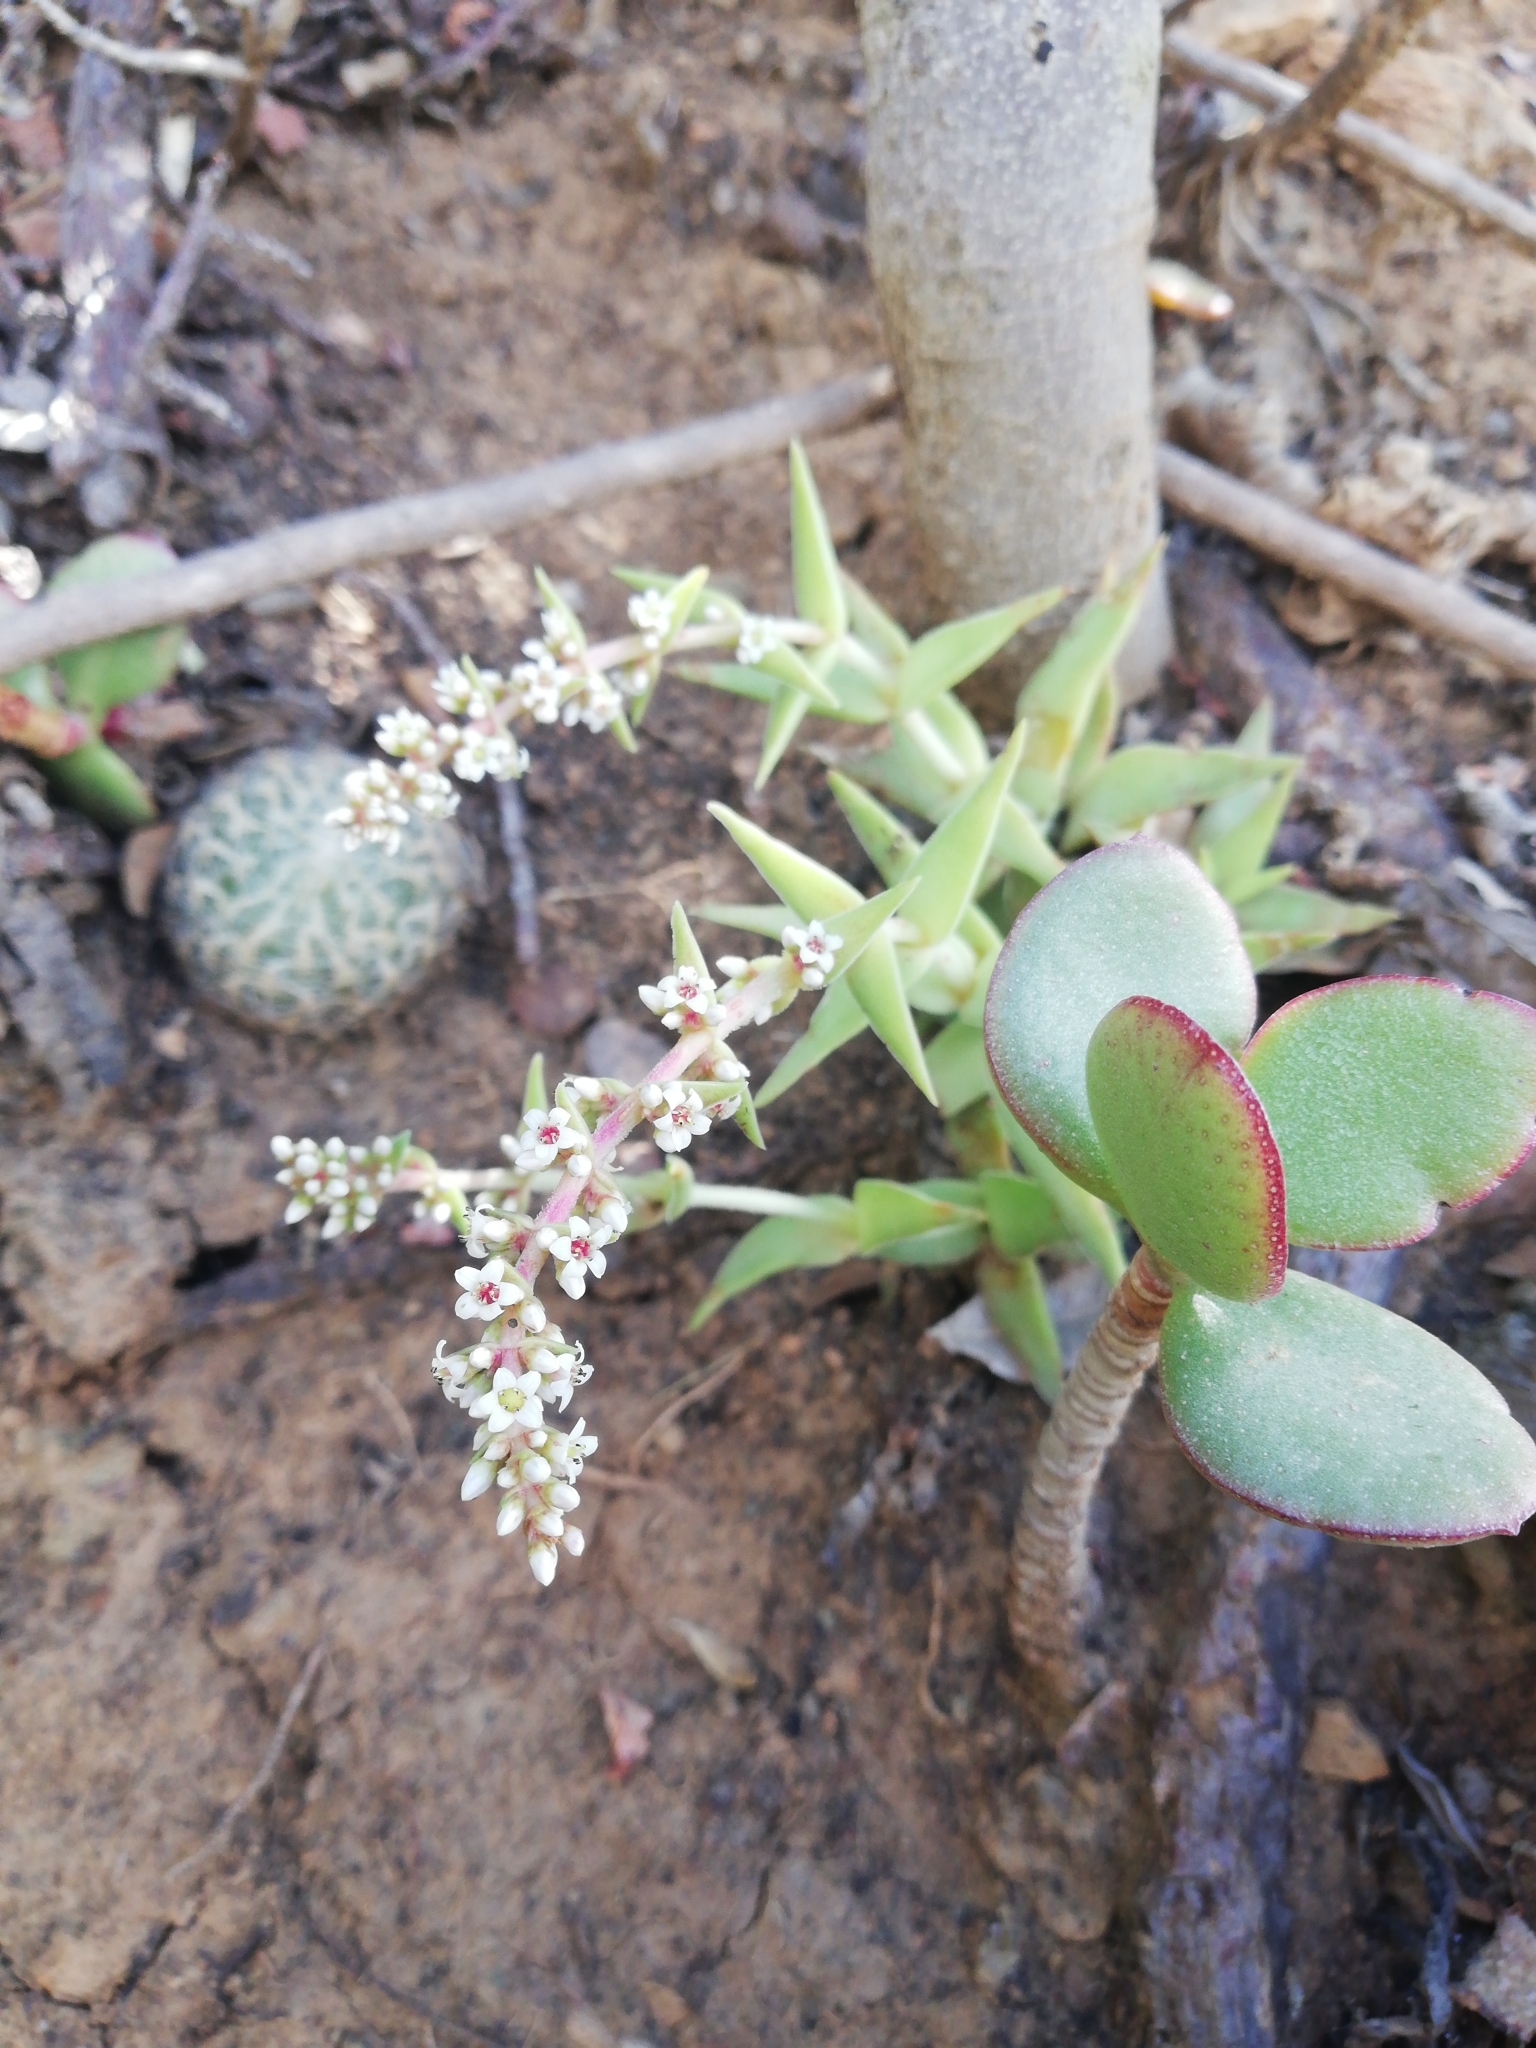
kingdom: Plantae
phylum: Tracheophyta
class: Magnoliopsida
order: Saxifragales
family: Crassulaceae
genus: Crassula
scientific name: Crassula capitella
